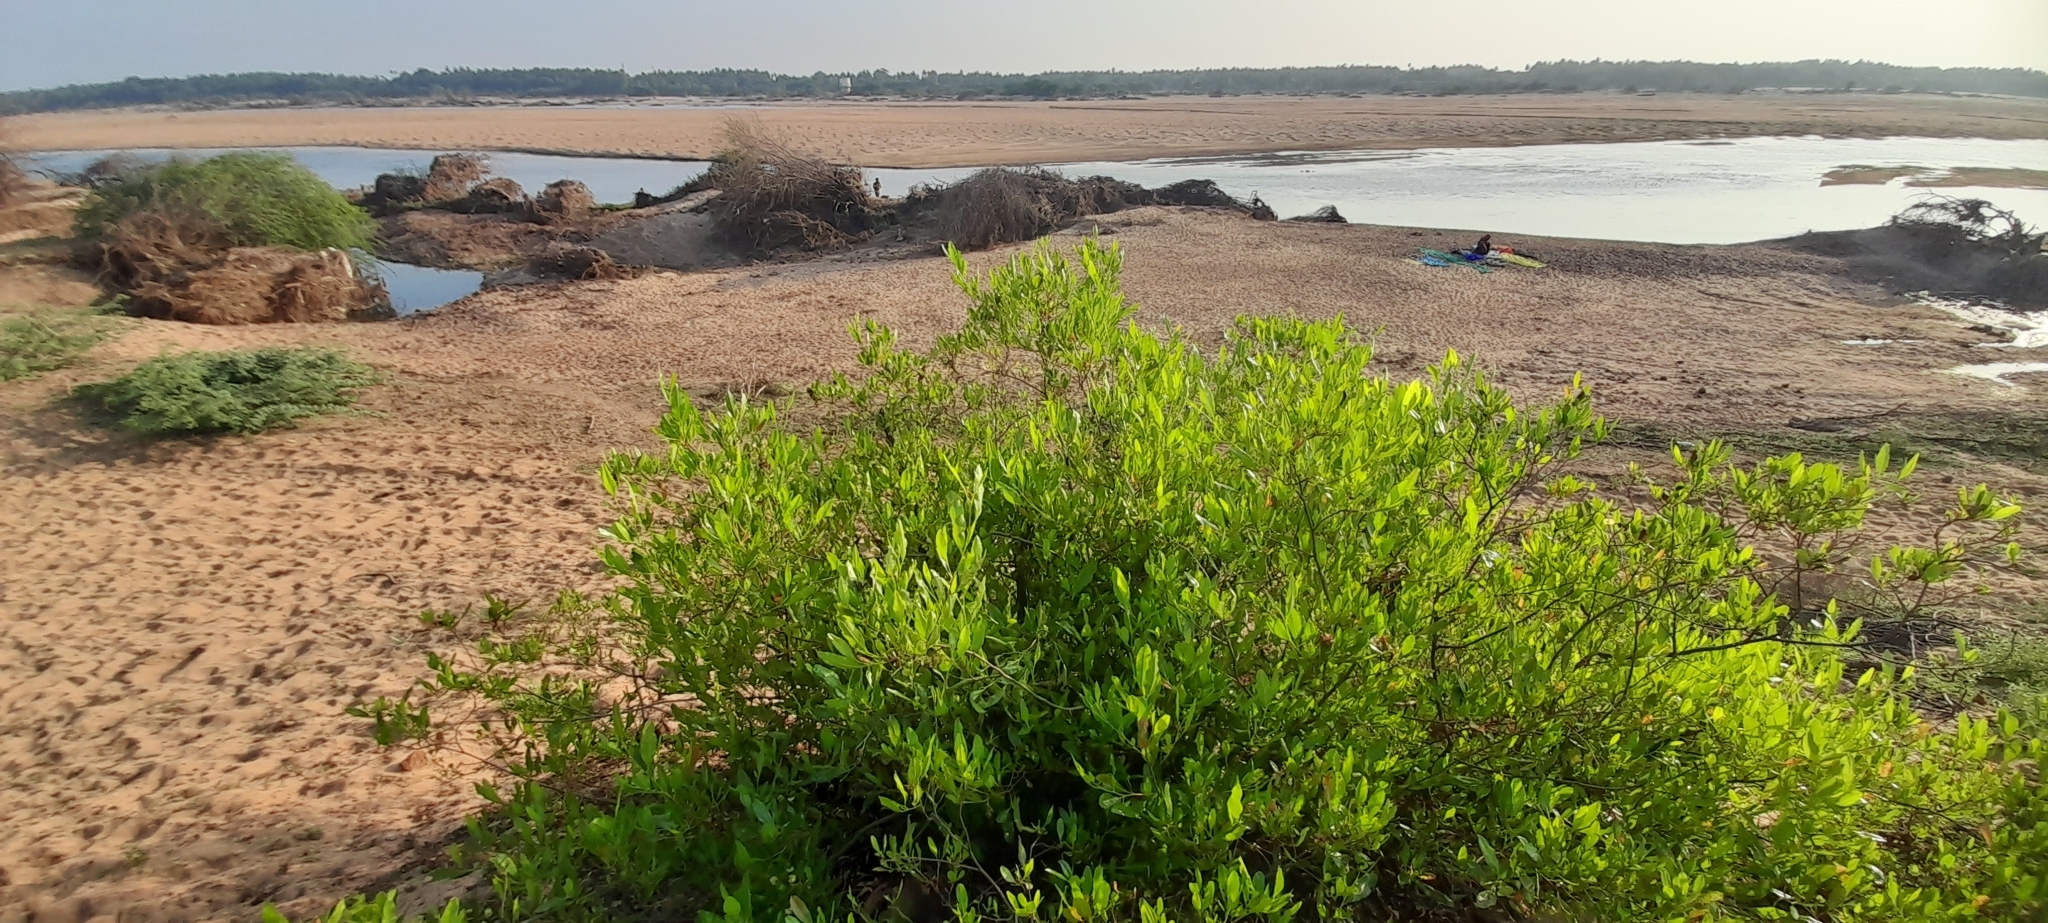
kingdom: Plantae
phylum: Tracheophyta
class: Magnoliopsida
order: Sapindales
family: Sapindaceae
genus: Dodonaea
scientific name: Dodonaea viscosa
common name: Hopbush
